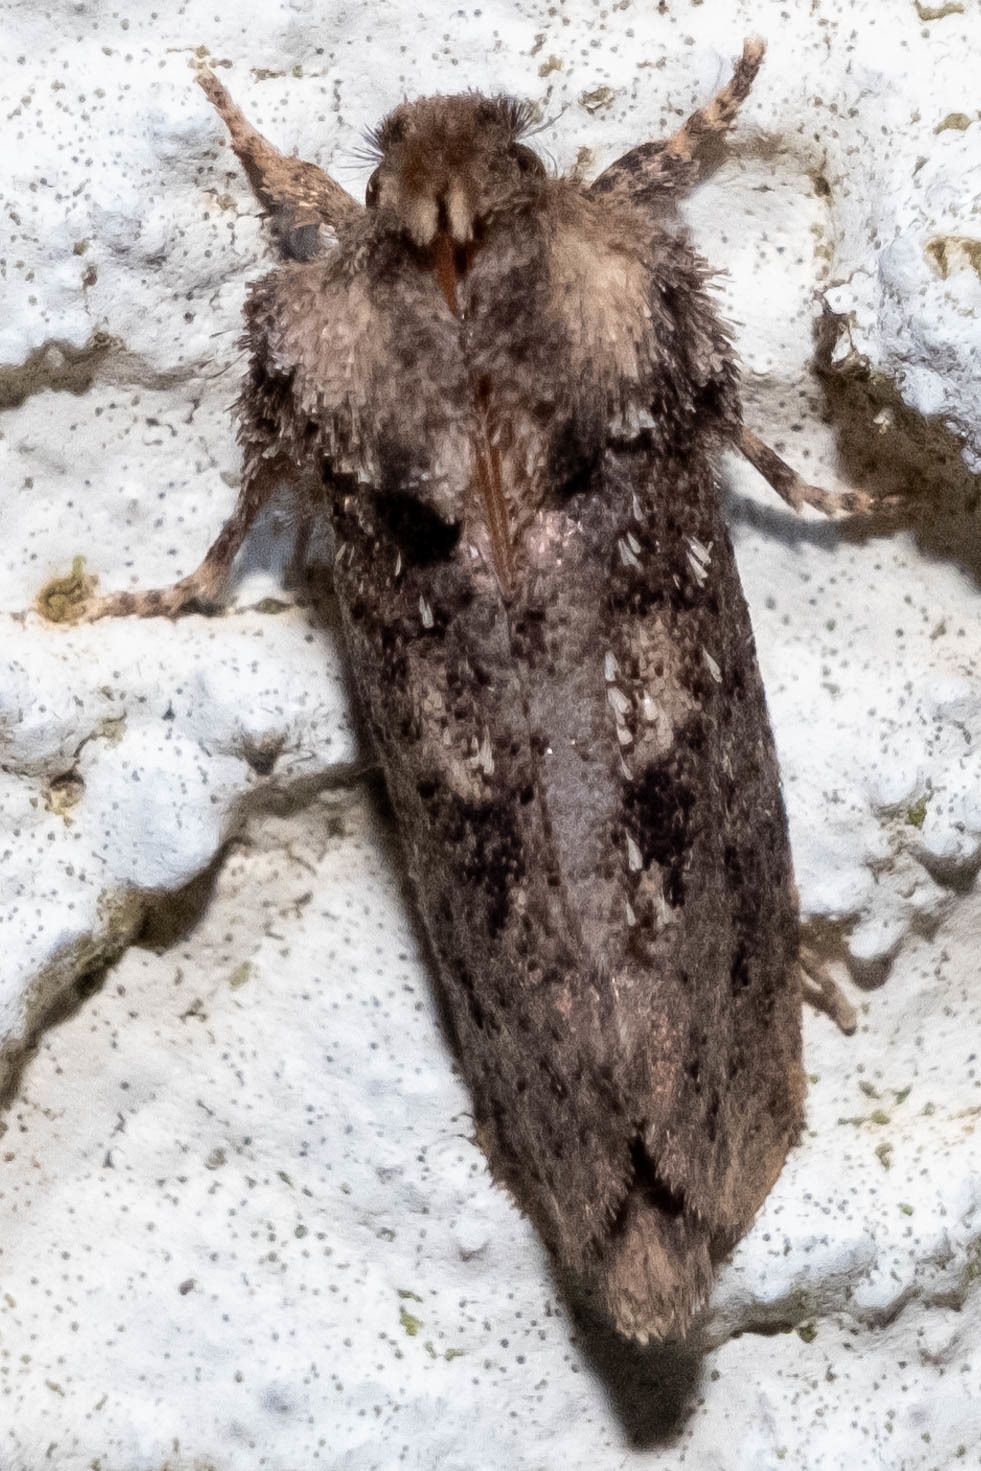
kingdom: Animalia
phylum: Arthropoda
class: Insecta
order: Lepidoptera
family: Tineidae
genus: Acrolophus
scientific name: Acrolophus arcanella
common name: Arcane grass tubeworm moth
